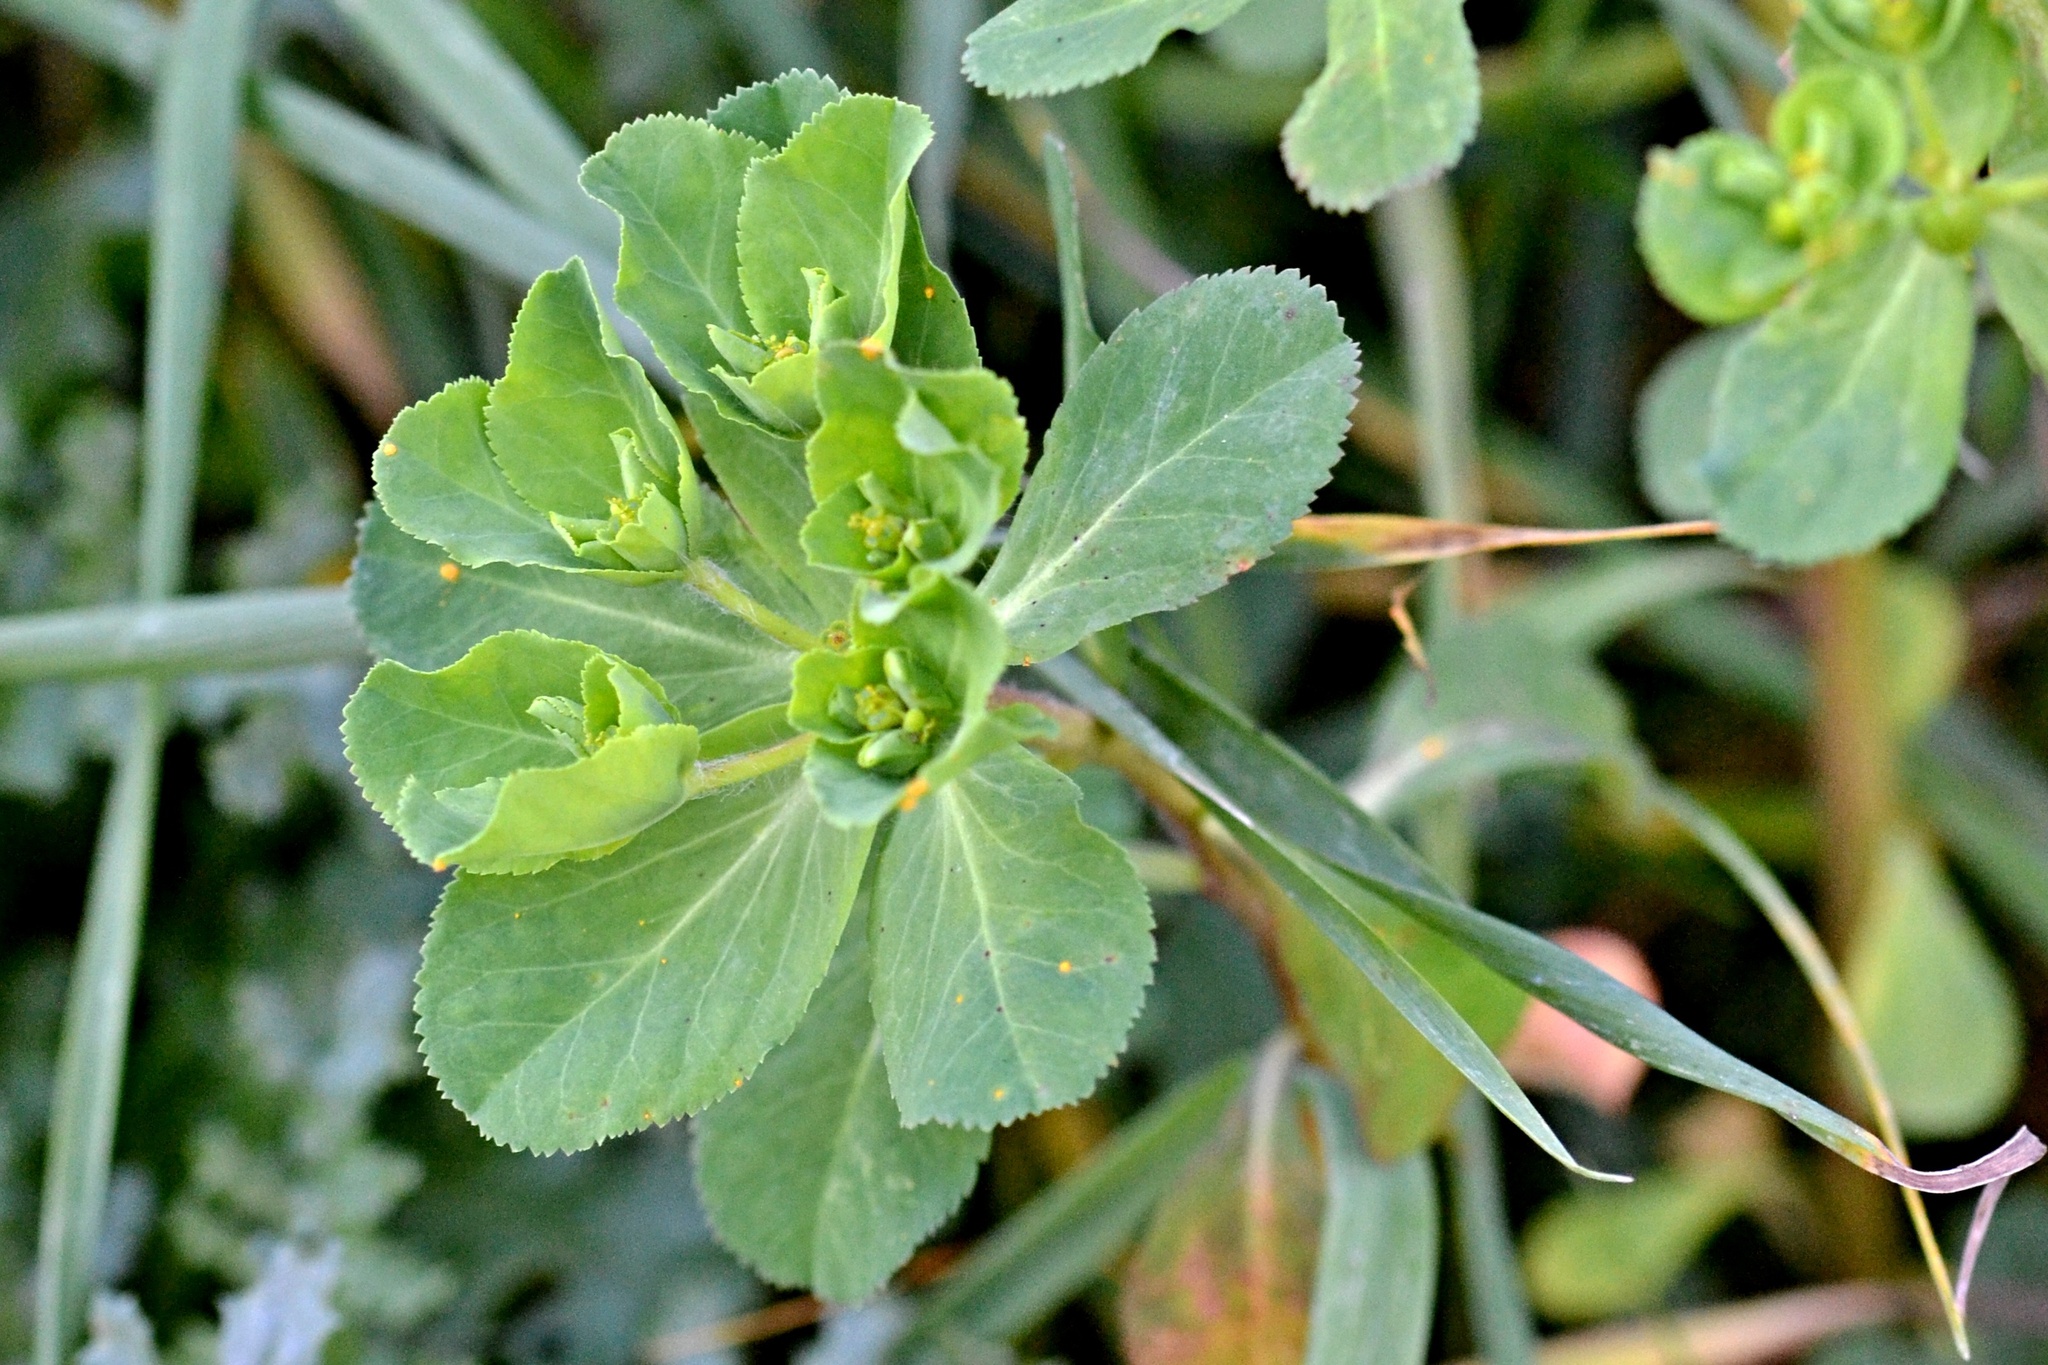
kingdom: Plantae
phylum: Tracheophyta
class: Magnoliopsida
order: Malpighiales
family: Euphorbiaceae
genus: Euphorbia
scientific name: Euphorbia helioscopia
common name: Sun spurge
